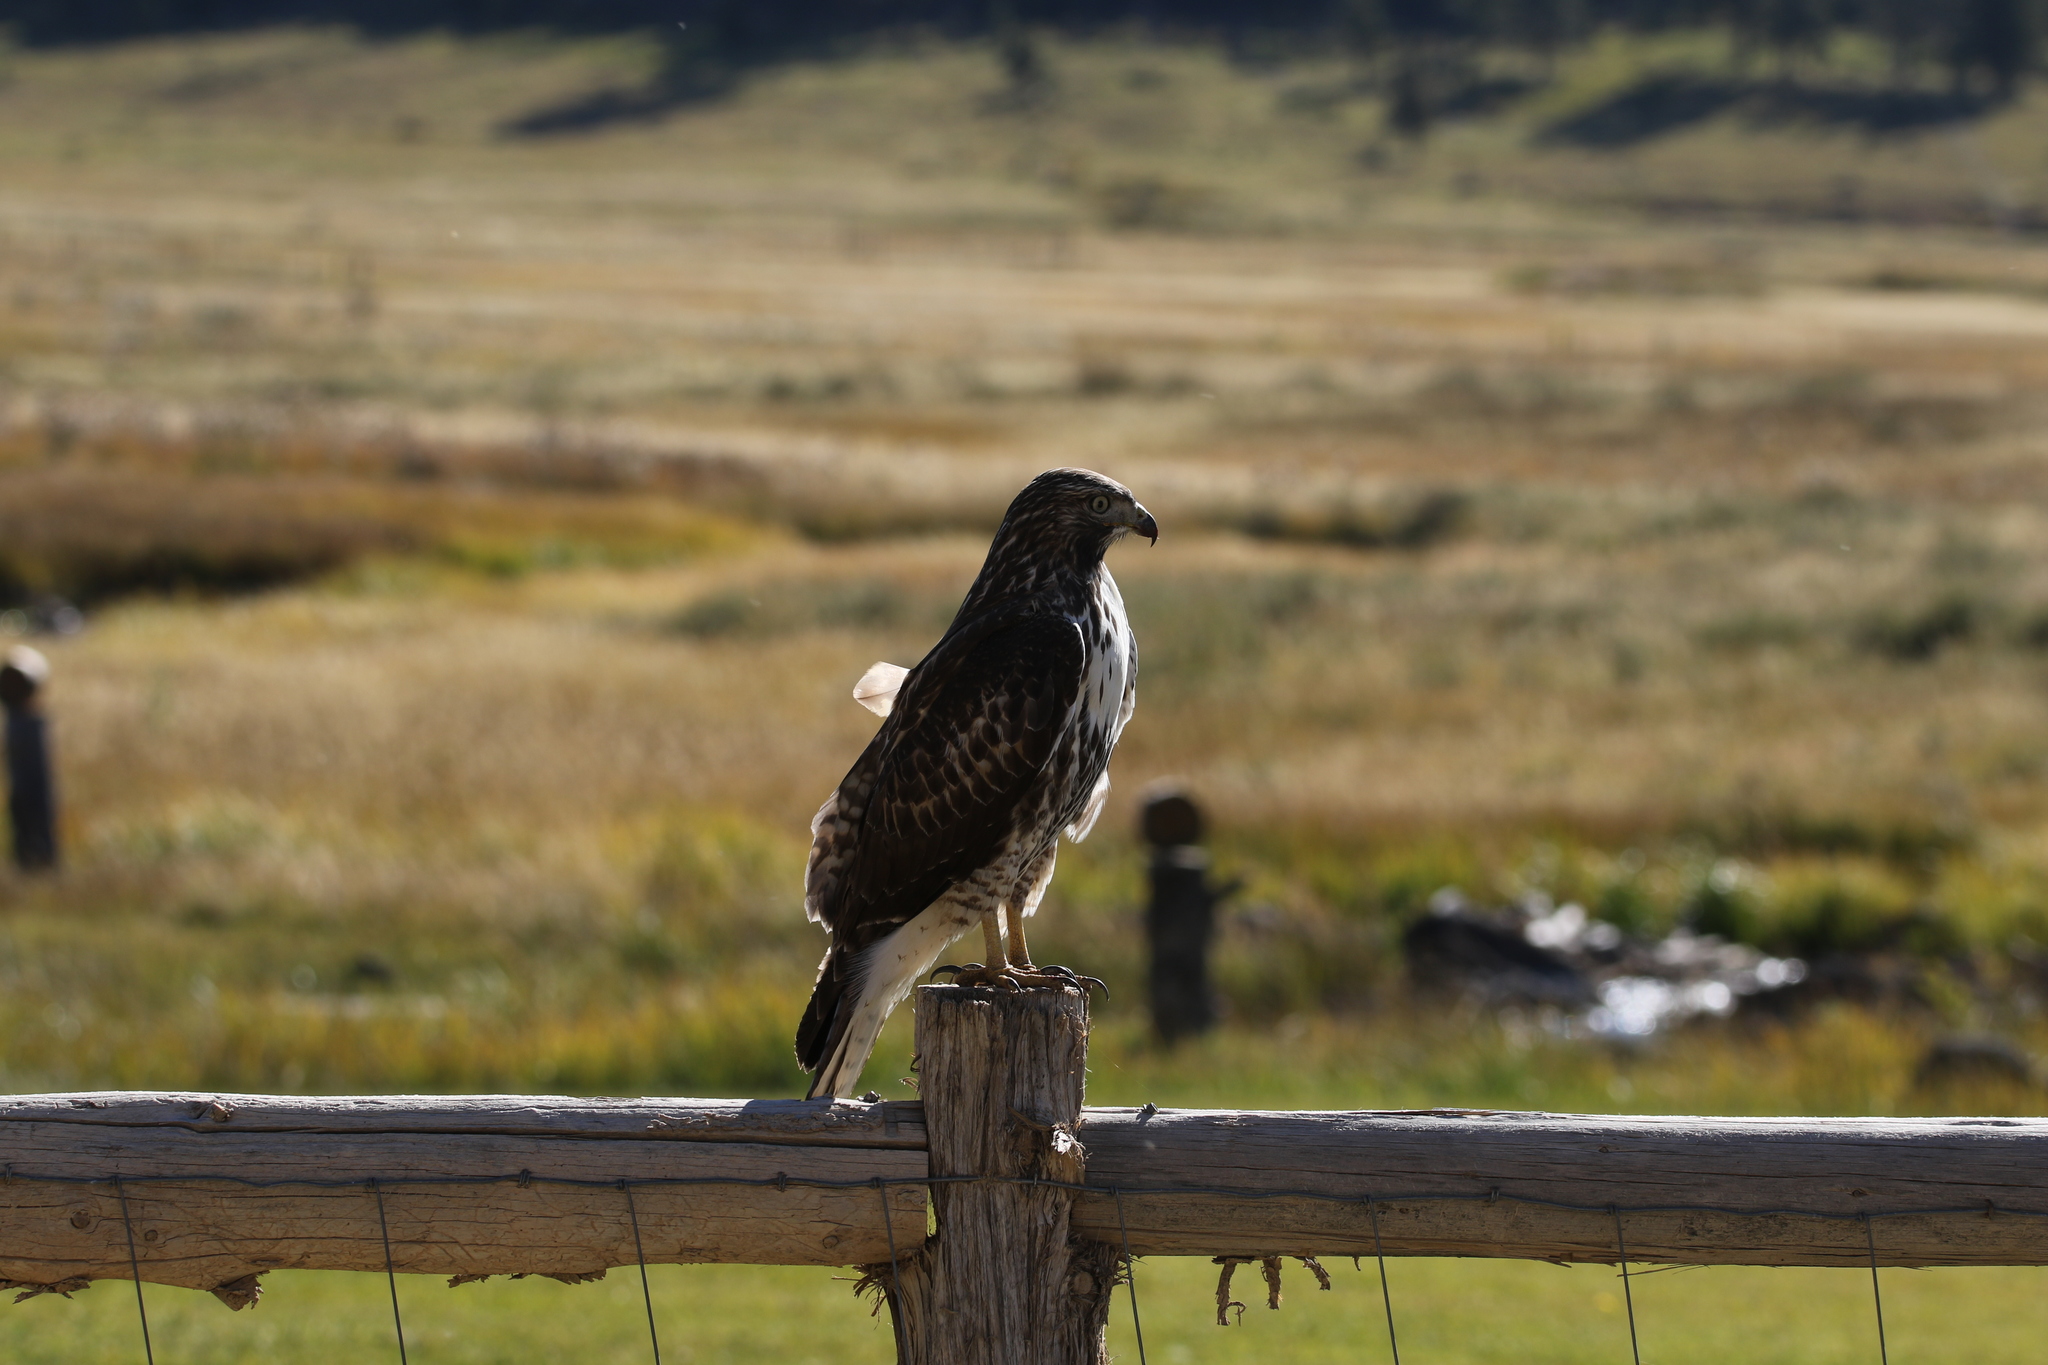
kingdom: Animalia
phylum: Chordata
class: Aves
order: Accipitriformes
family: Accipitridae
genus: Buteo
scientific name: Buteo jamaicensis
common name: Red-tailed hawk
